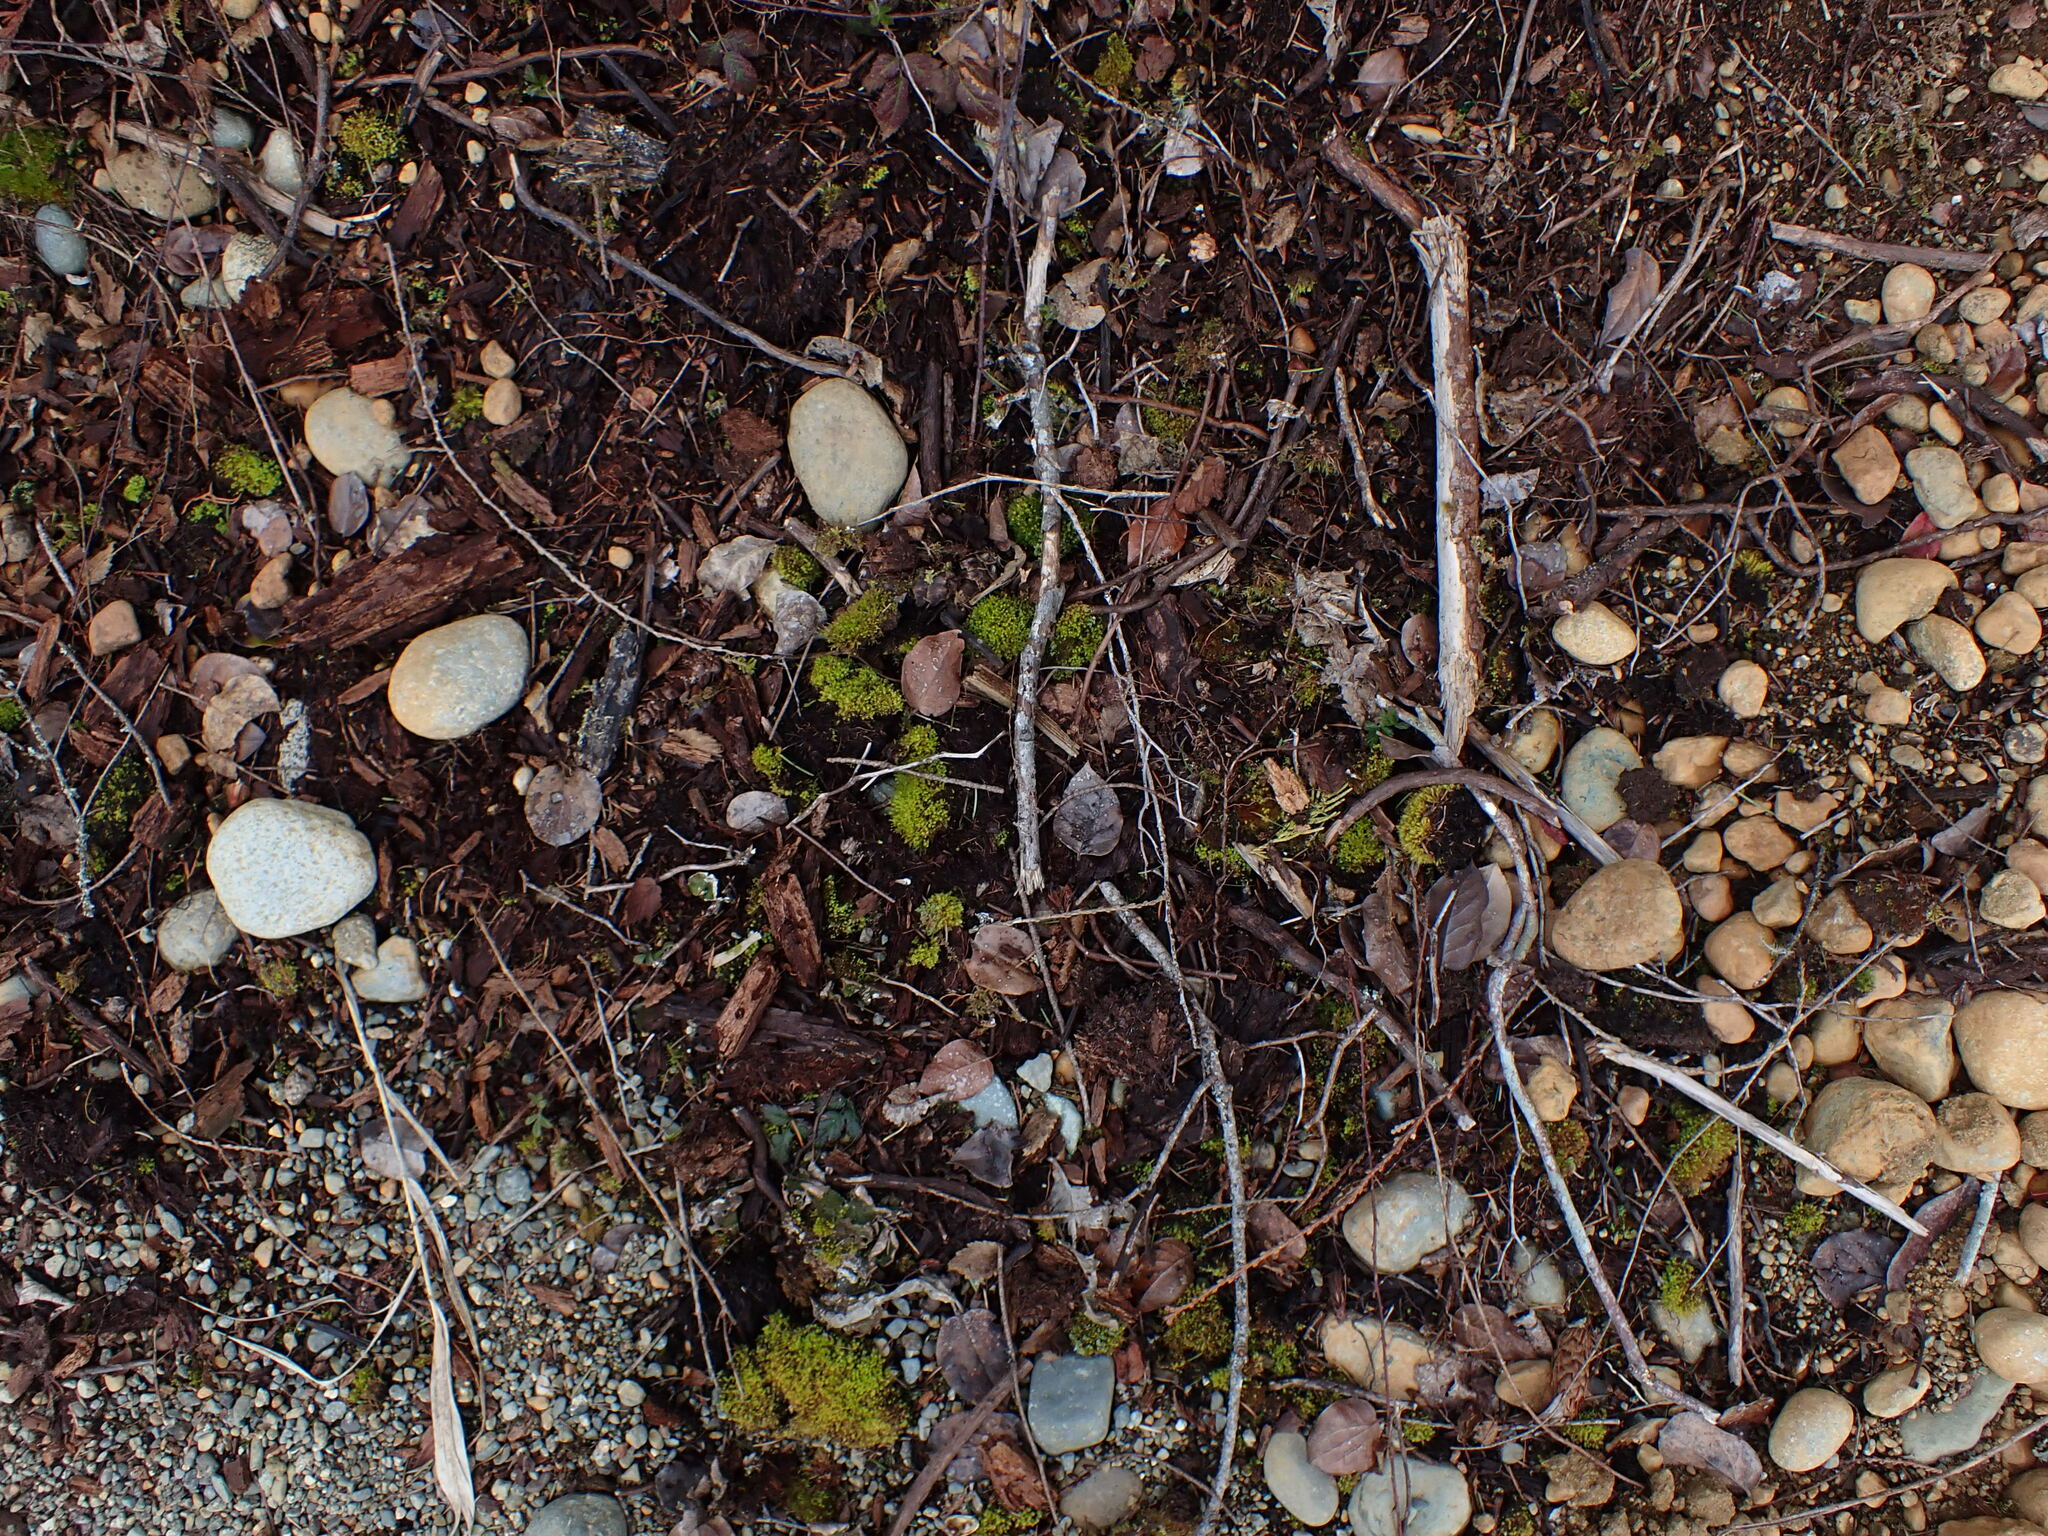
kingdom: Plantae
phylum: Bryophyta
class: Bryopsida
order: Aulacomniales
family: Aulacomniaceae
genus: Aulacomnium
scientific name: Aulacomnium androgynum
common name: Little groove moss
